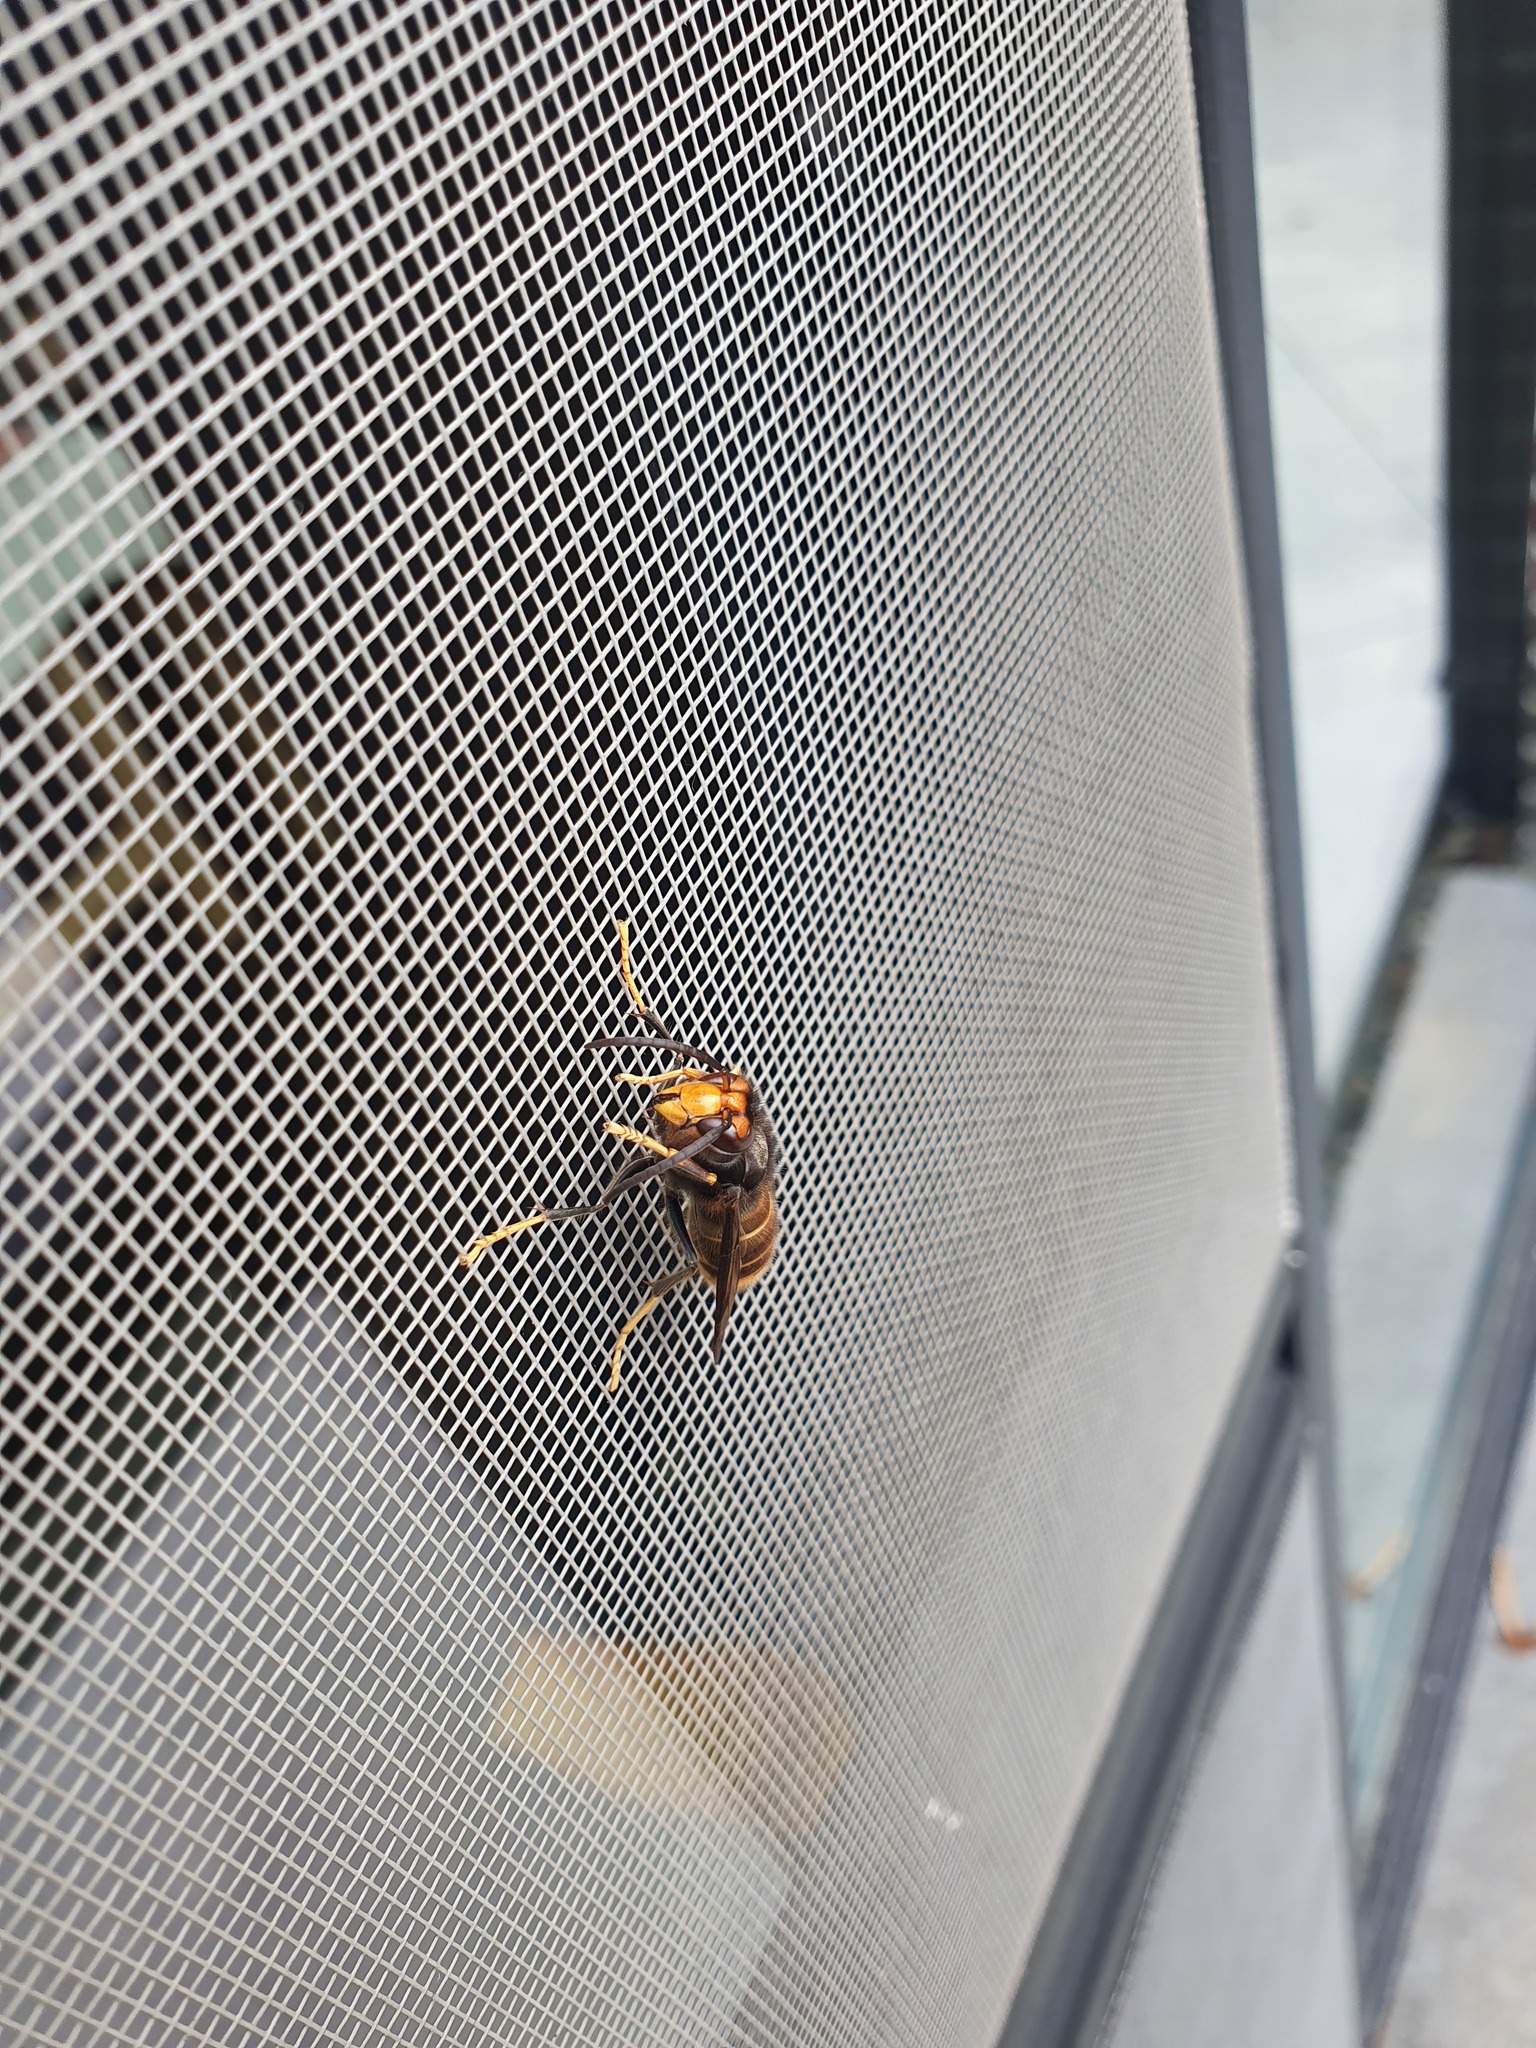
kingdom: Animalia
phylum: Arthropoda
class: Insecta
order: Hymenoptera
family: Vespidae
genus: Vespa
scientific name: Vespa velutina
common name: Asian hornet
